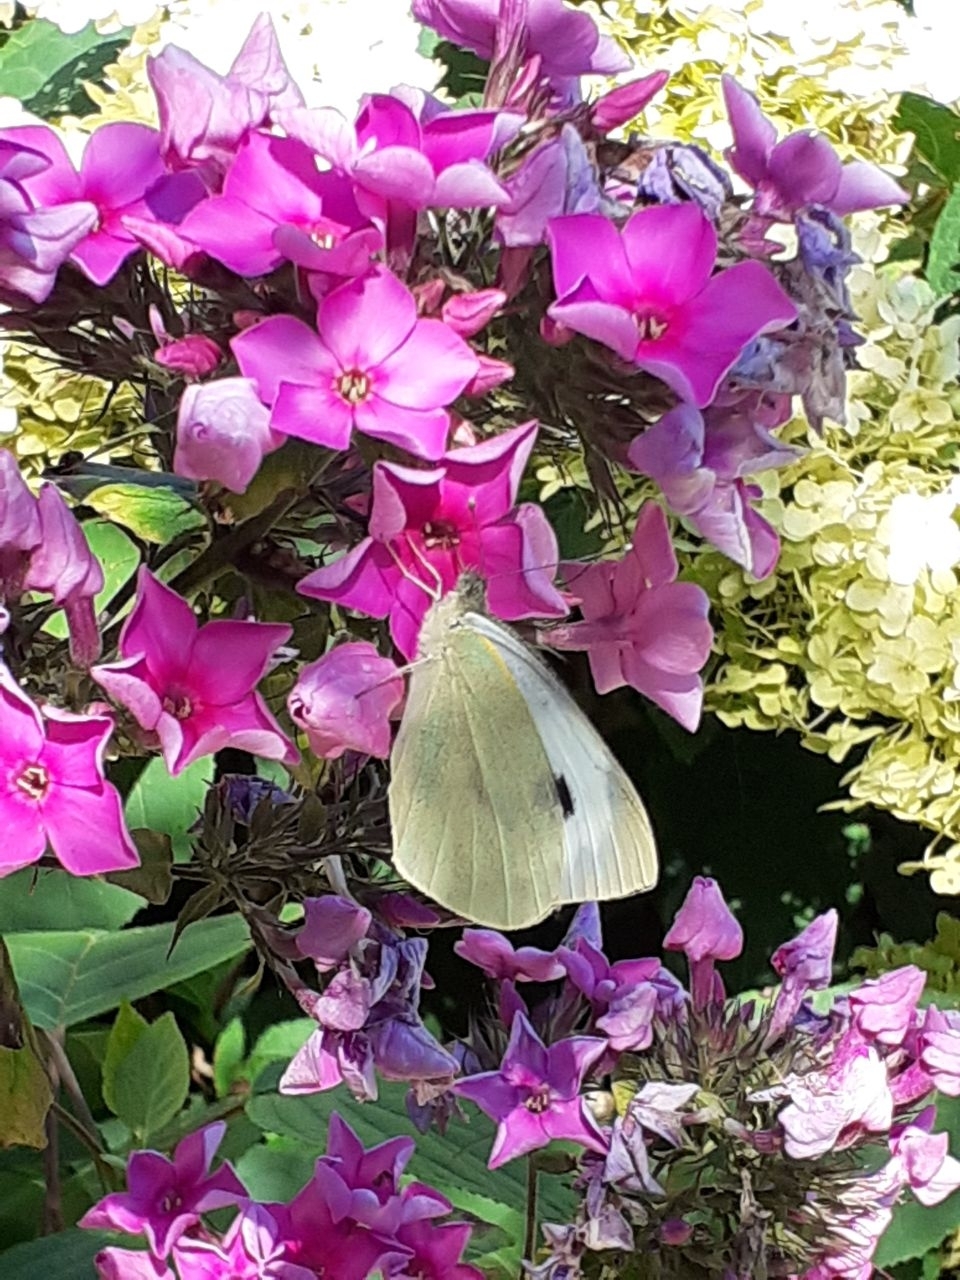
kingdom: Animalia
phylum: Arthropoda
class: Insecta
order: Lepidoptera
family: Pieridae
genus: Pieris
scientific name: Pieris brassicae
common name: Large white
